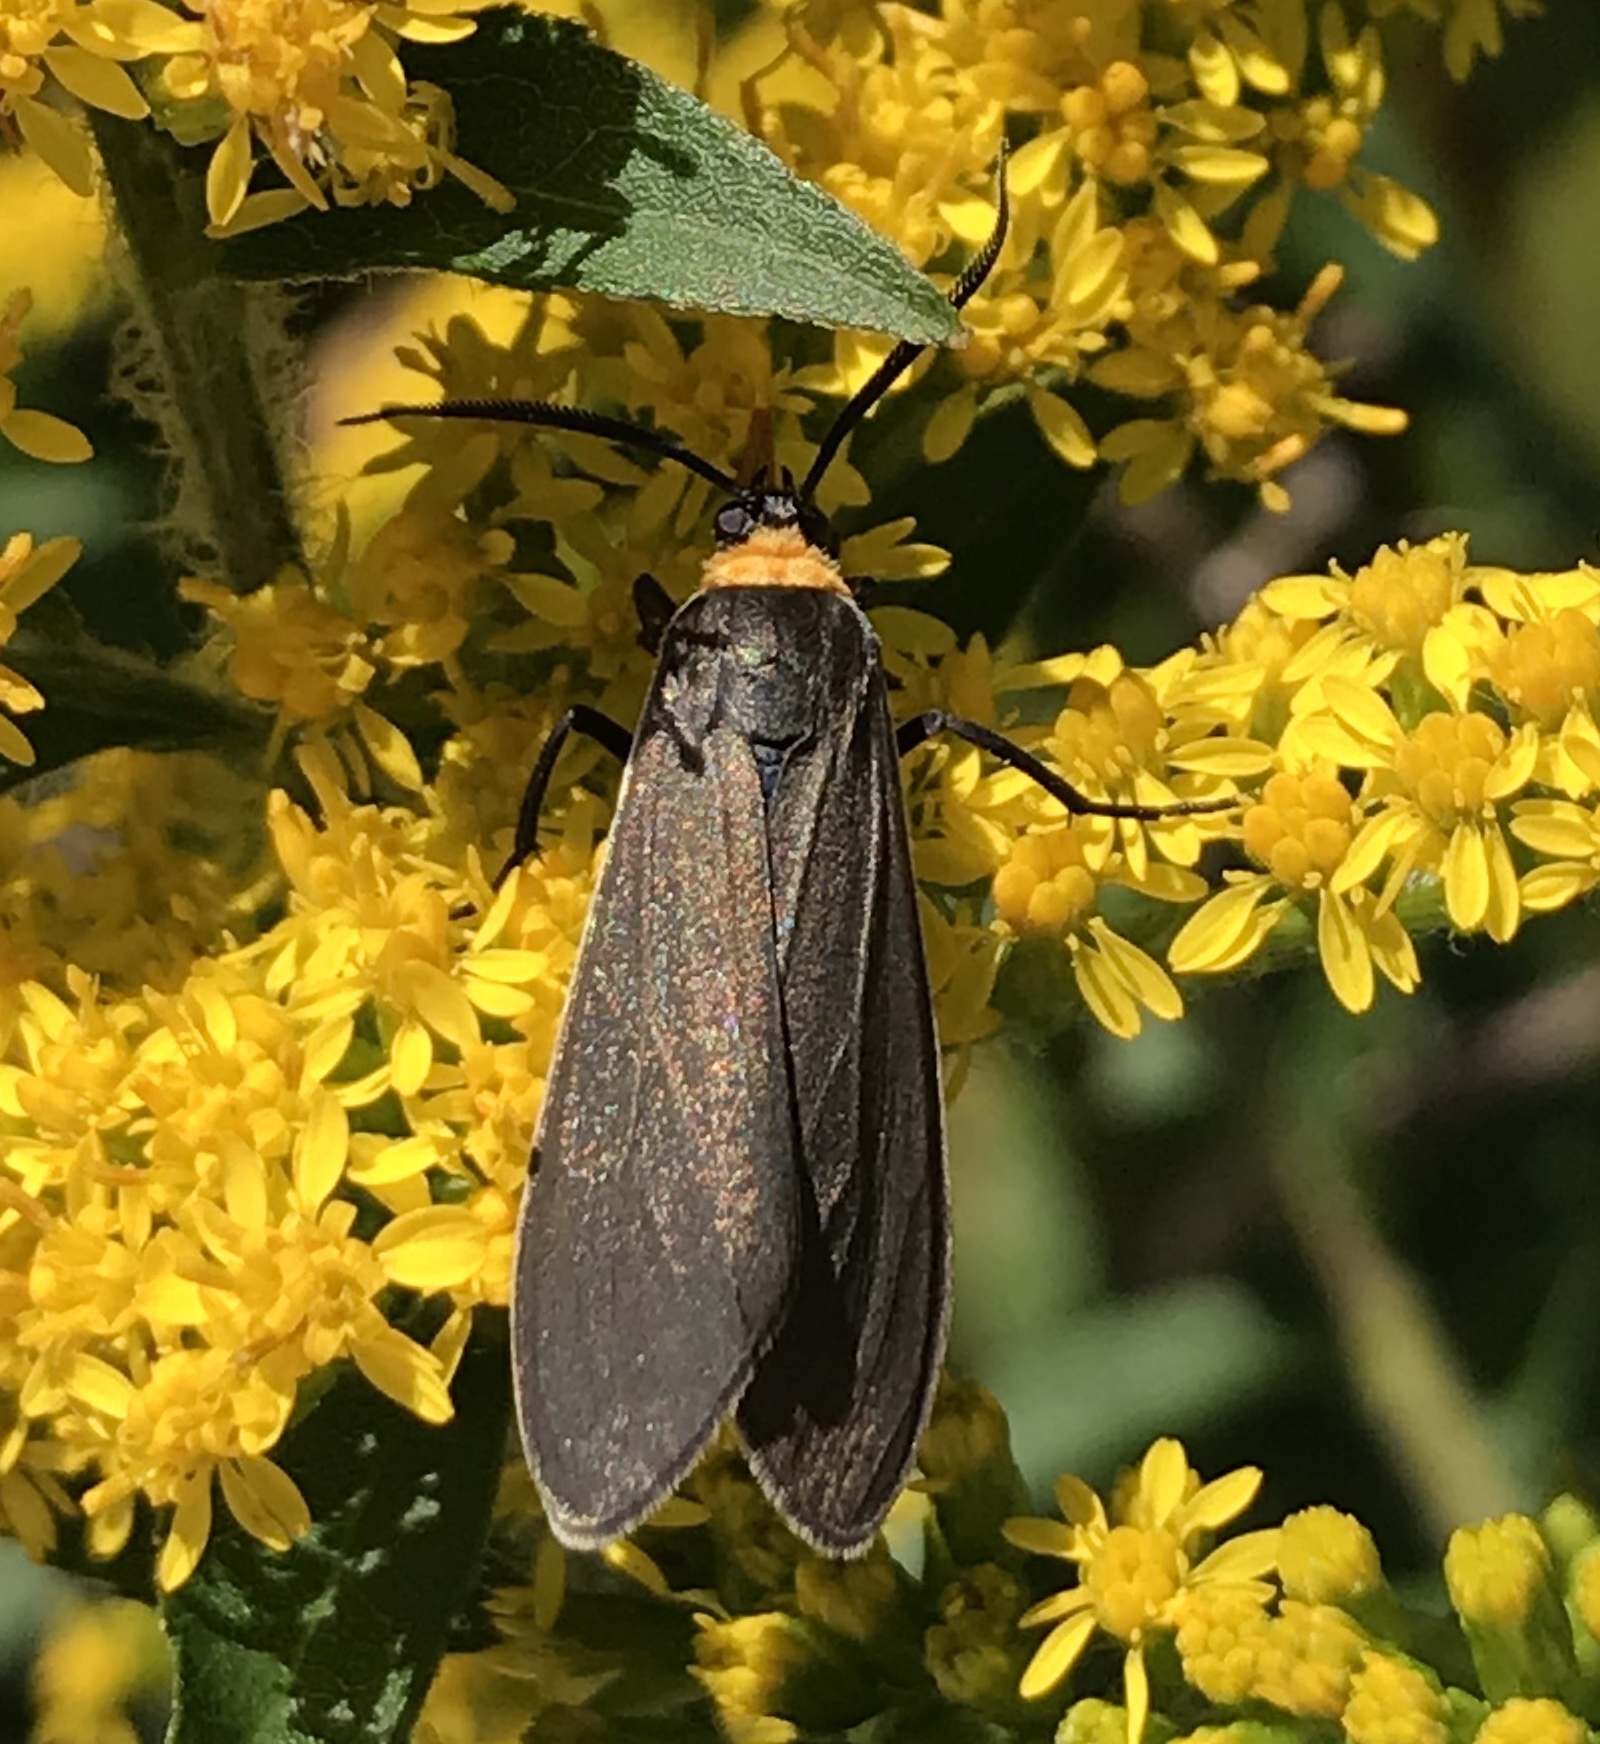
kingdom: Animalia
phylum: Arthropoda
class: Insecta
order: Lepidoptera
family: Erebidae
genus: Cisseps
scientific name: Cisseps fulvicollis
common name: Yellow-collared scape moth
